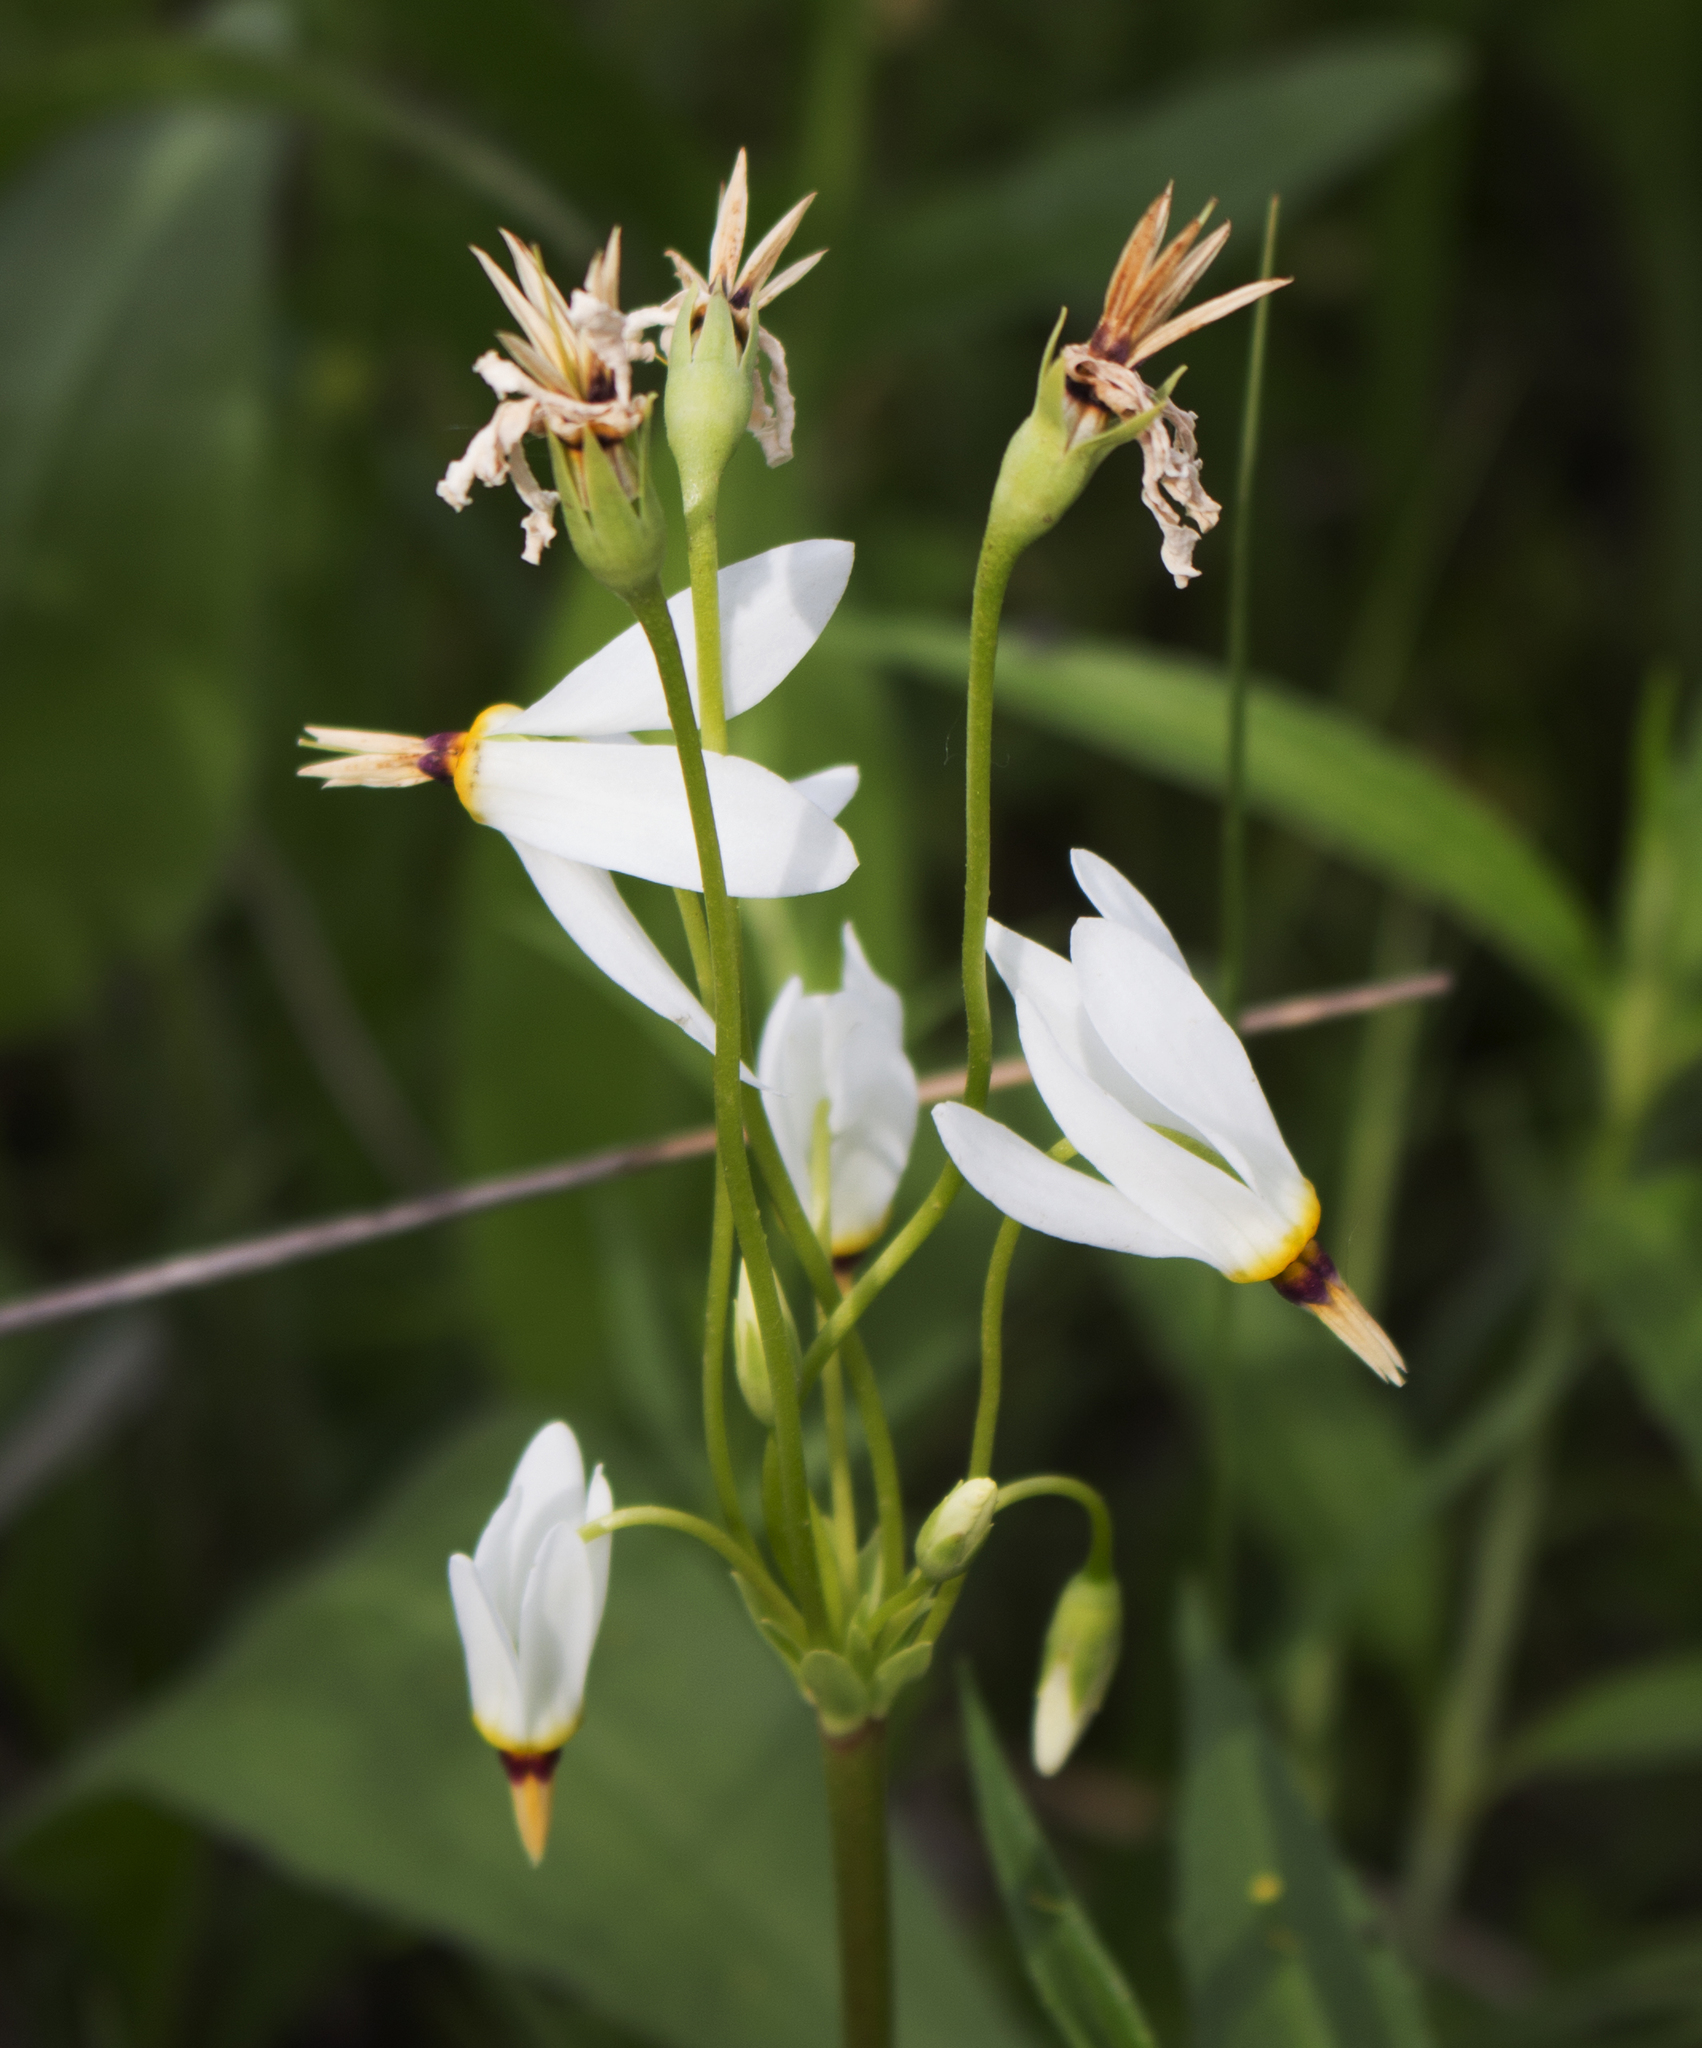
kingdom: Plantae
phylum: Tracheophyta
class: Magnoliopsida
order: Ericales
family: Primulaceae
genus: Dodecatheon
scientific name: Dodecatheon meadia
